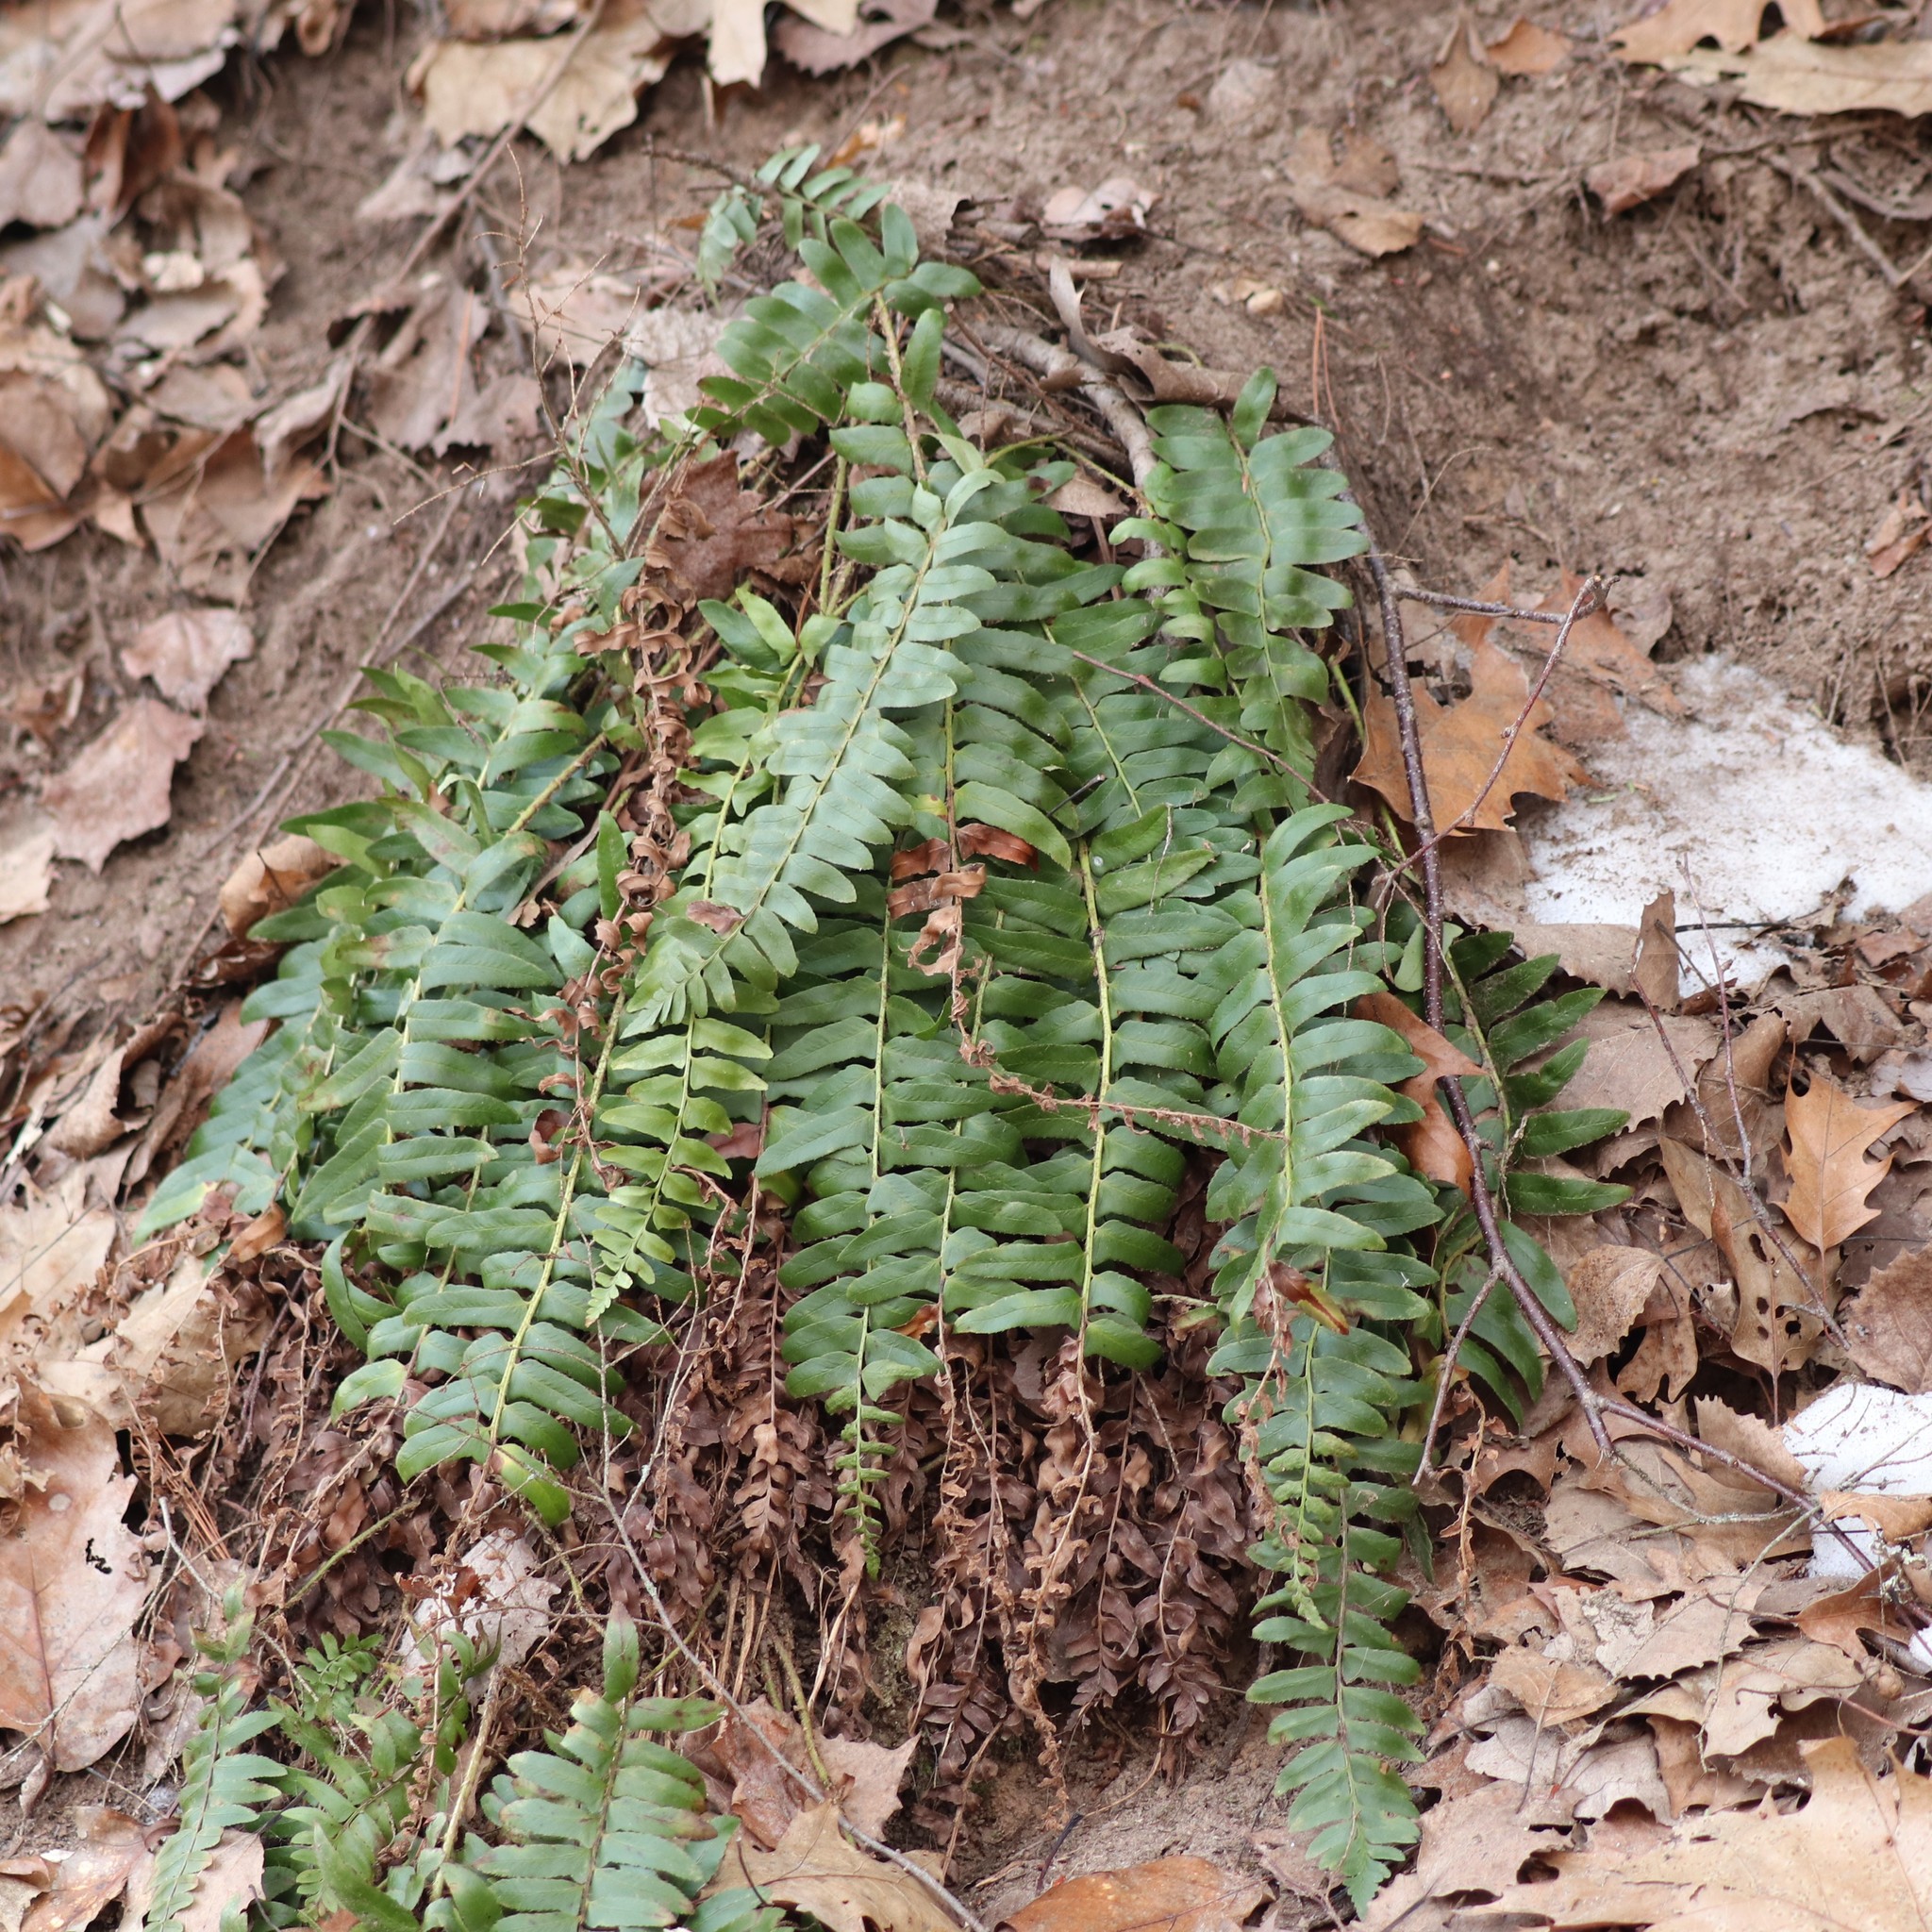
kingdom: Plantae
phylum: Tracheophyta
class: Polypodiopsida
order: Polypodiales
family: Dryopteridaceae
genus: Polystichum
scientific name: Polystichum acrostichoides
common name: Christmas fern
